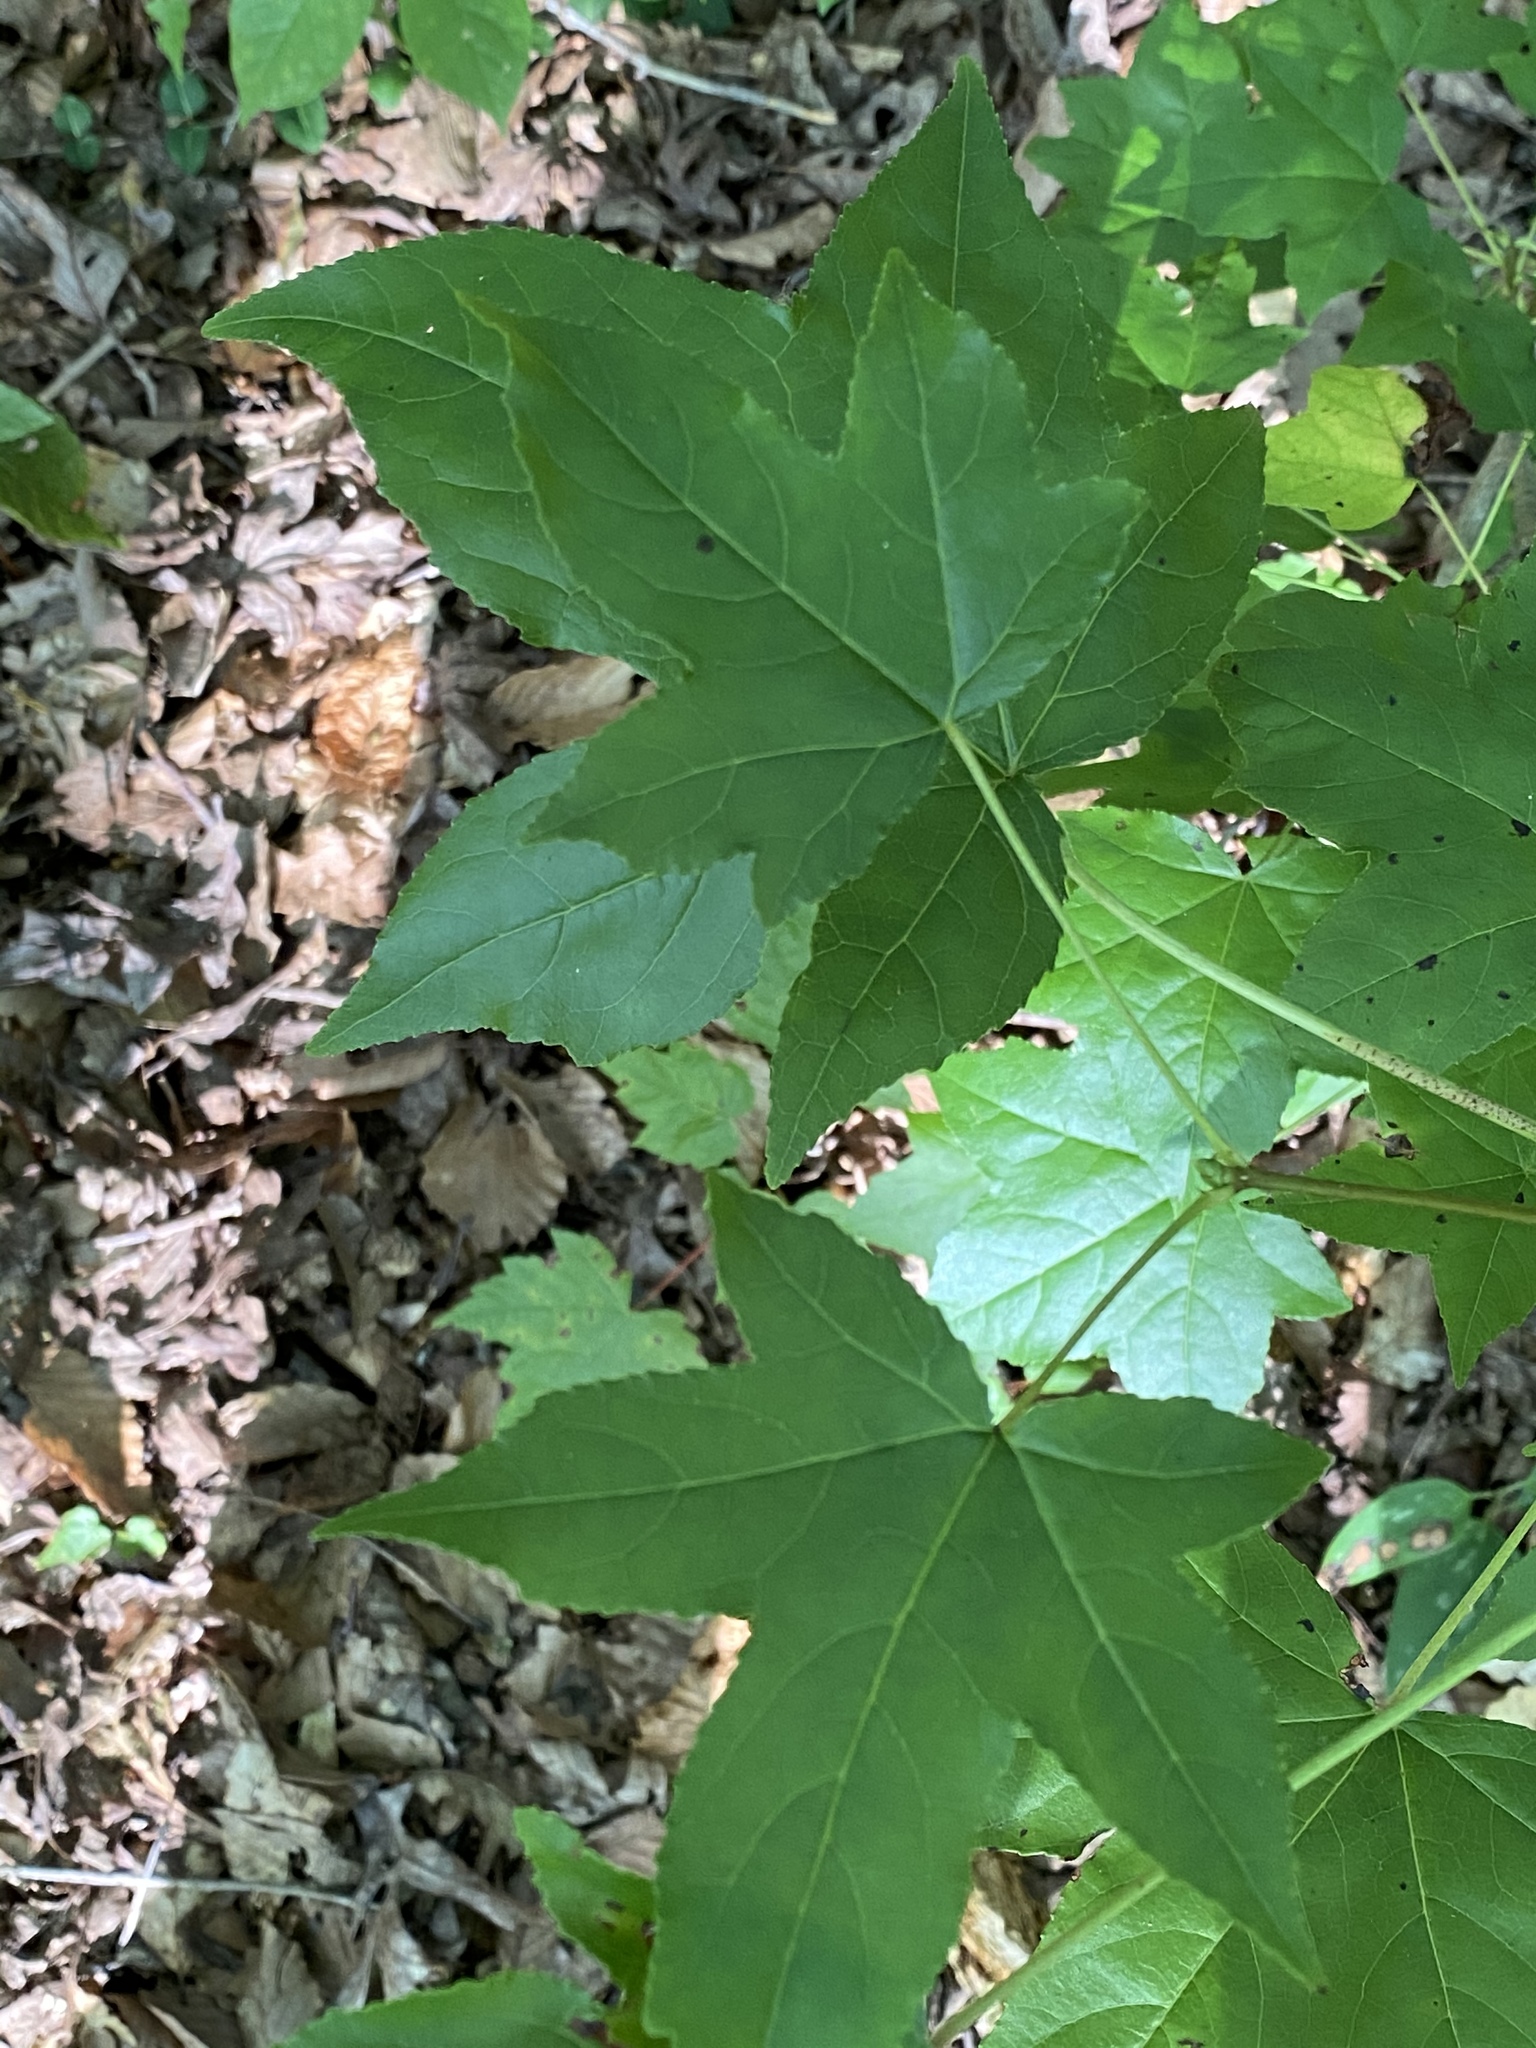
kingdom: Plantae
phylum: Tracheophyta
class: Magnoliopsida
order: Saxifragales
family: Altingiaceae
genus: Liquidambar
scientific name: Liquidambar styraciflua
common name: Sweet gum
